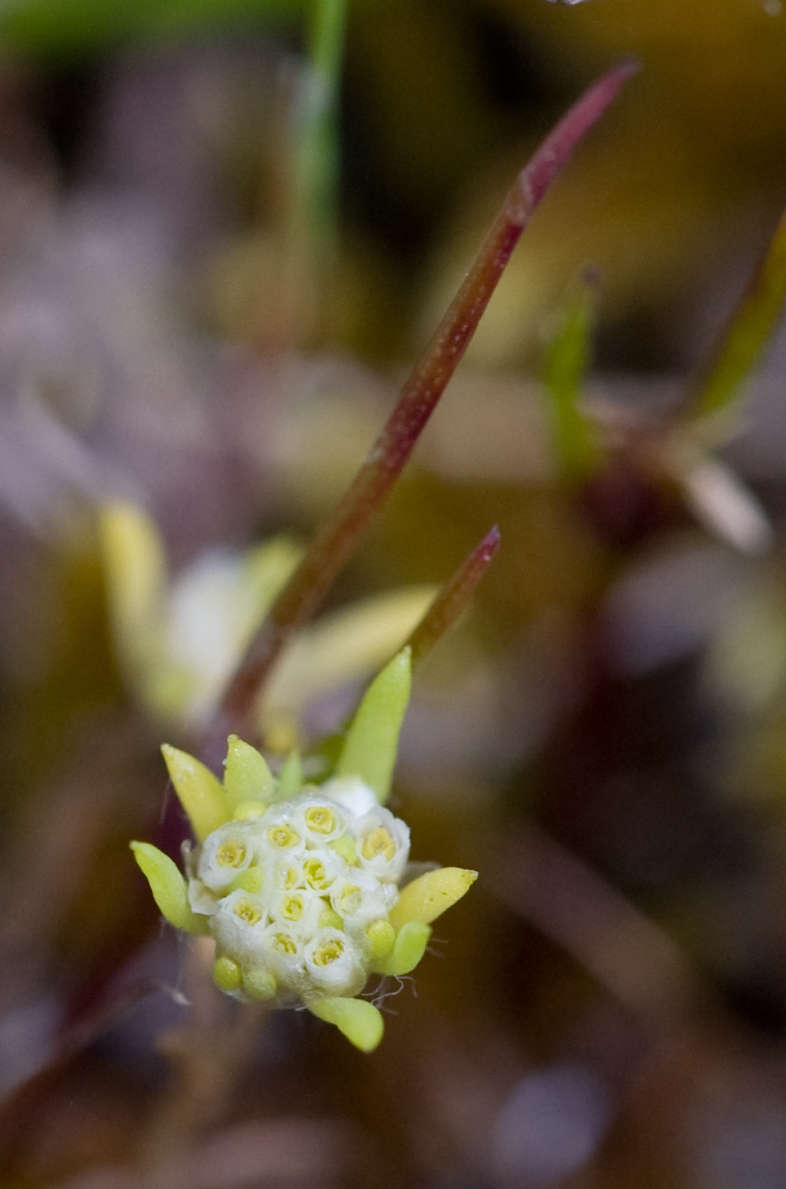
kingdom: Plantae
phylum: Tracheophyta
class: Magnoliopsida
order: Asterales
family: Asteraceae
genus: Siloxerus
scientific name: Siloxerus multiflorus
